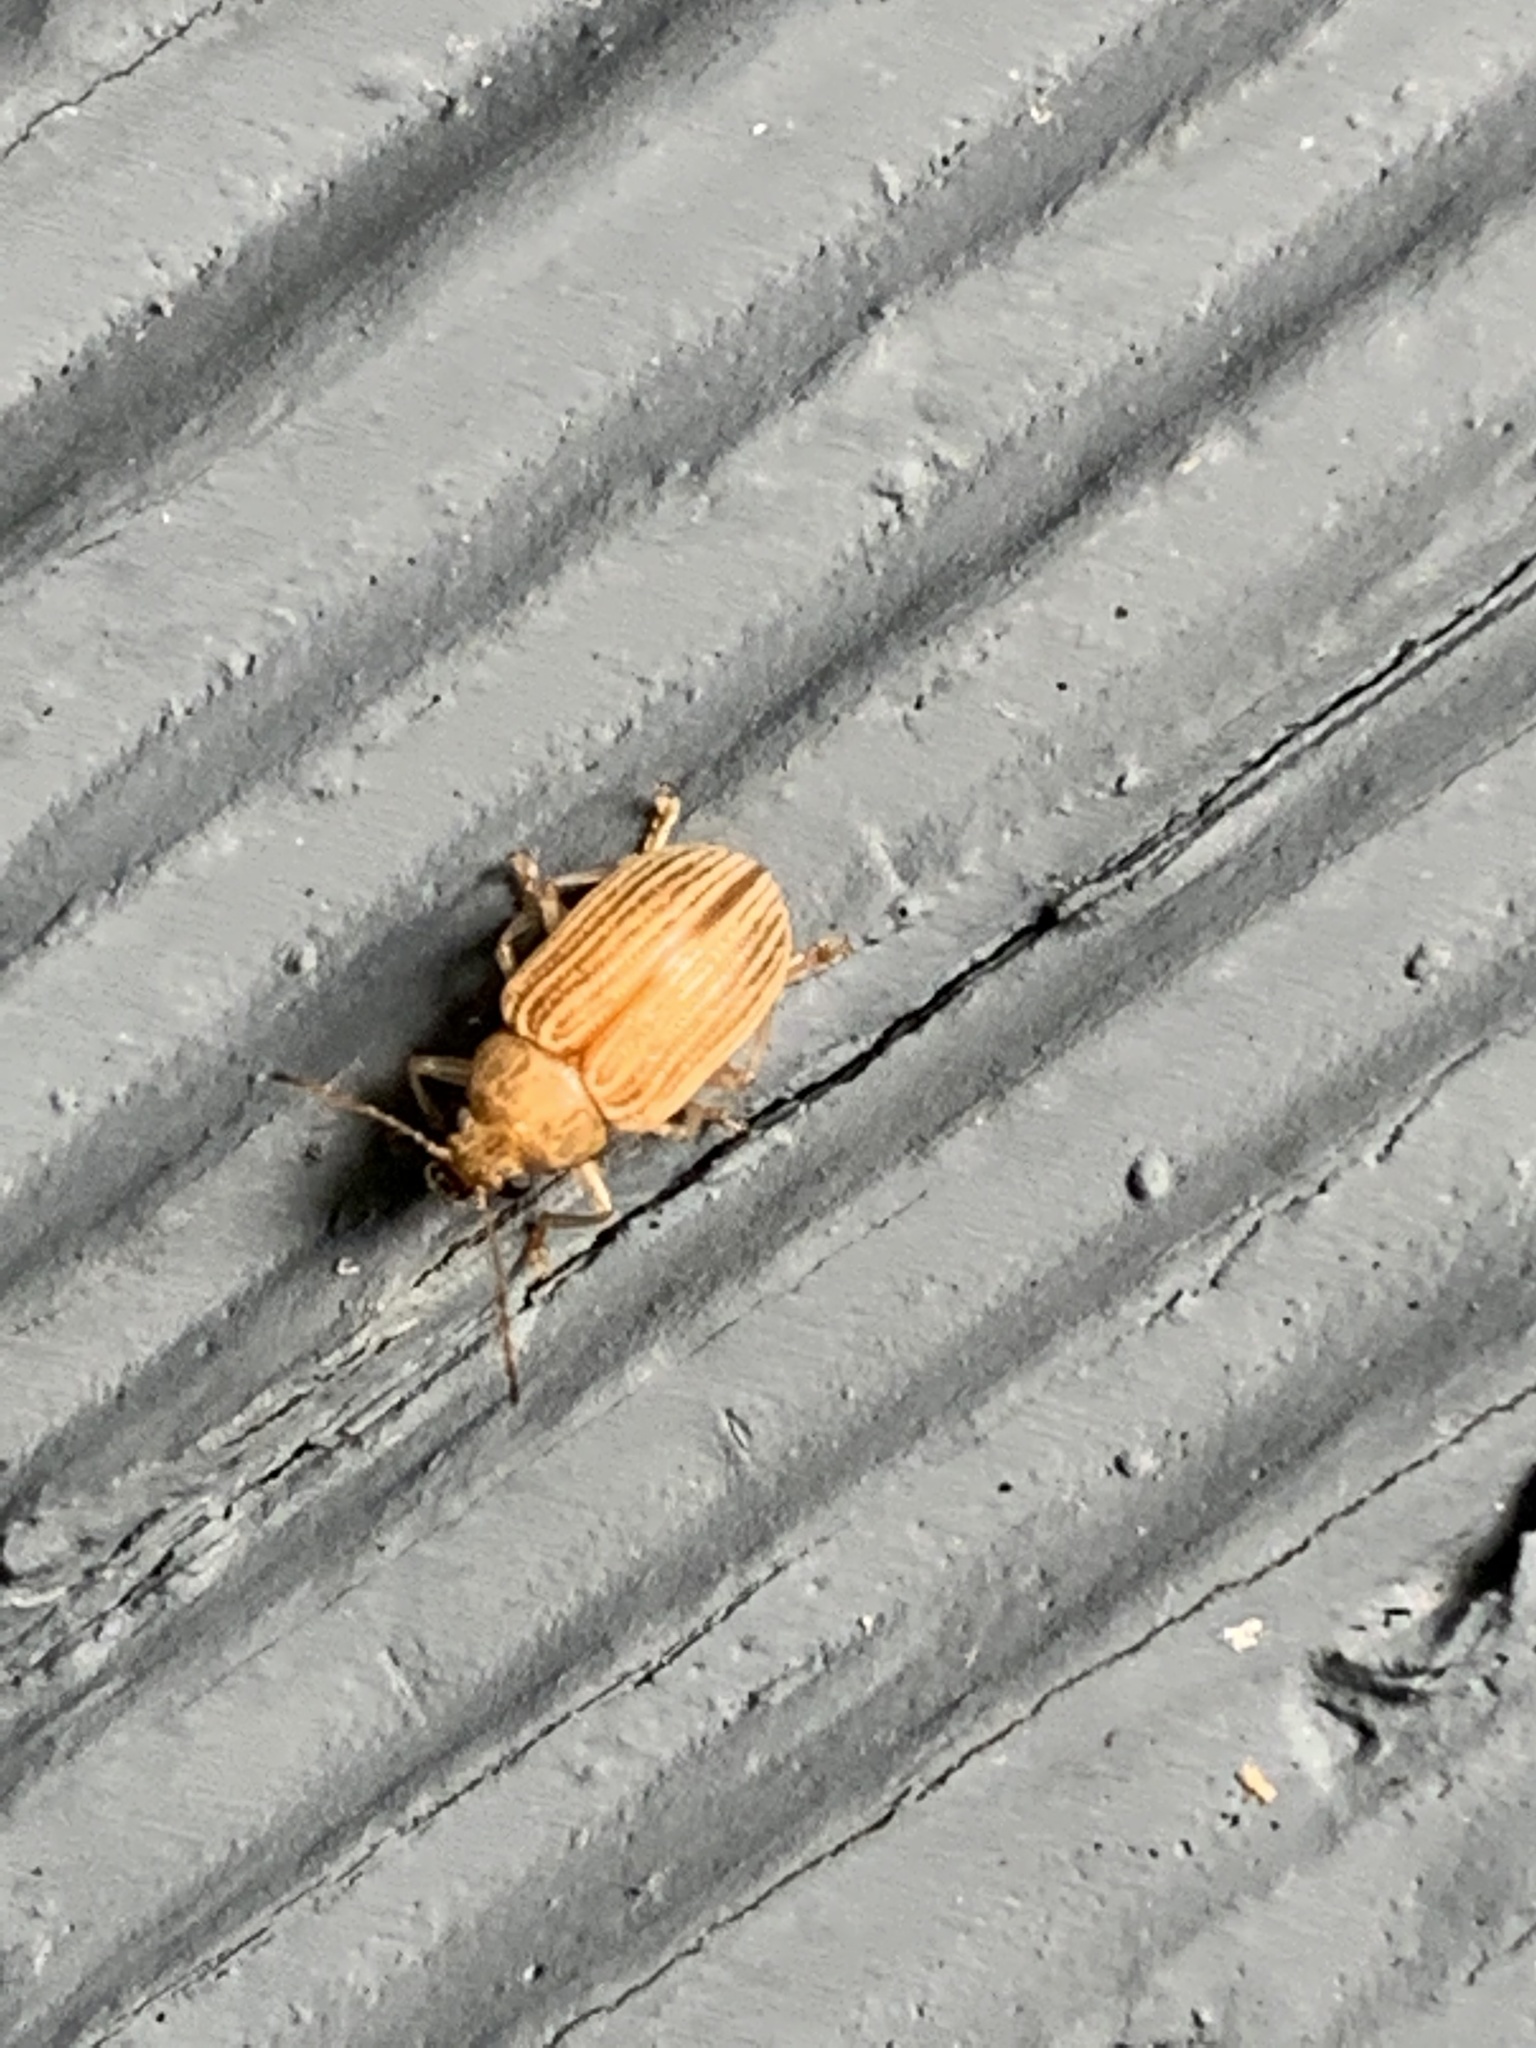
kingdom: Animalia
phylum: Arthropoda
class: Insecta
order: Coleoptera
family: Chrysomelidae
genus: Colaspis
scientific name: Colaspis brunnea
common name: Grape colaspis
